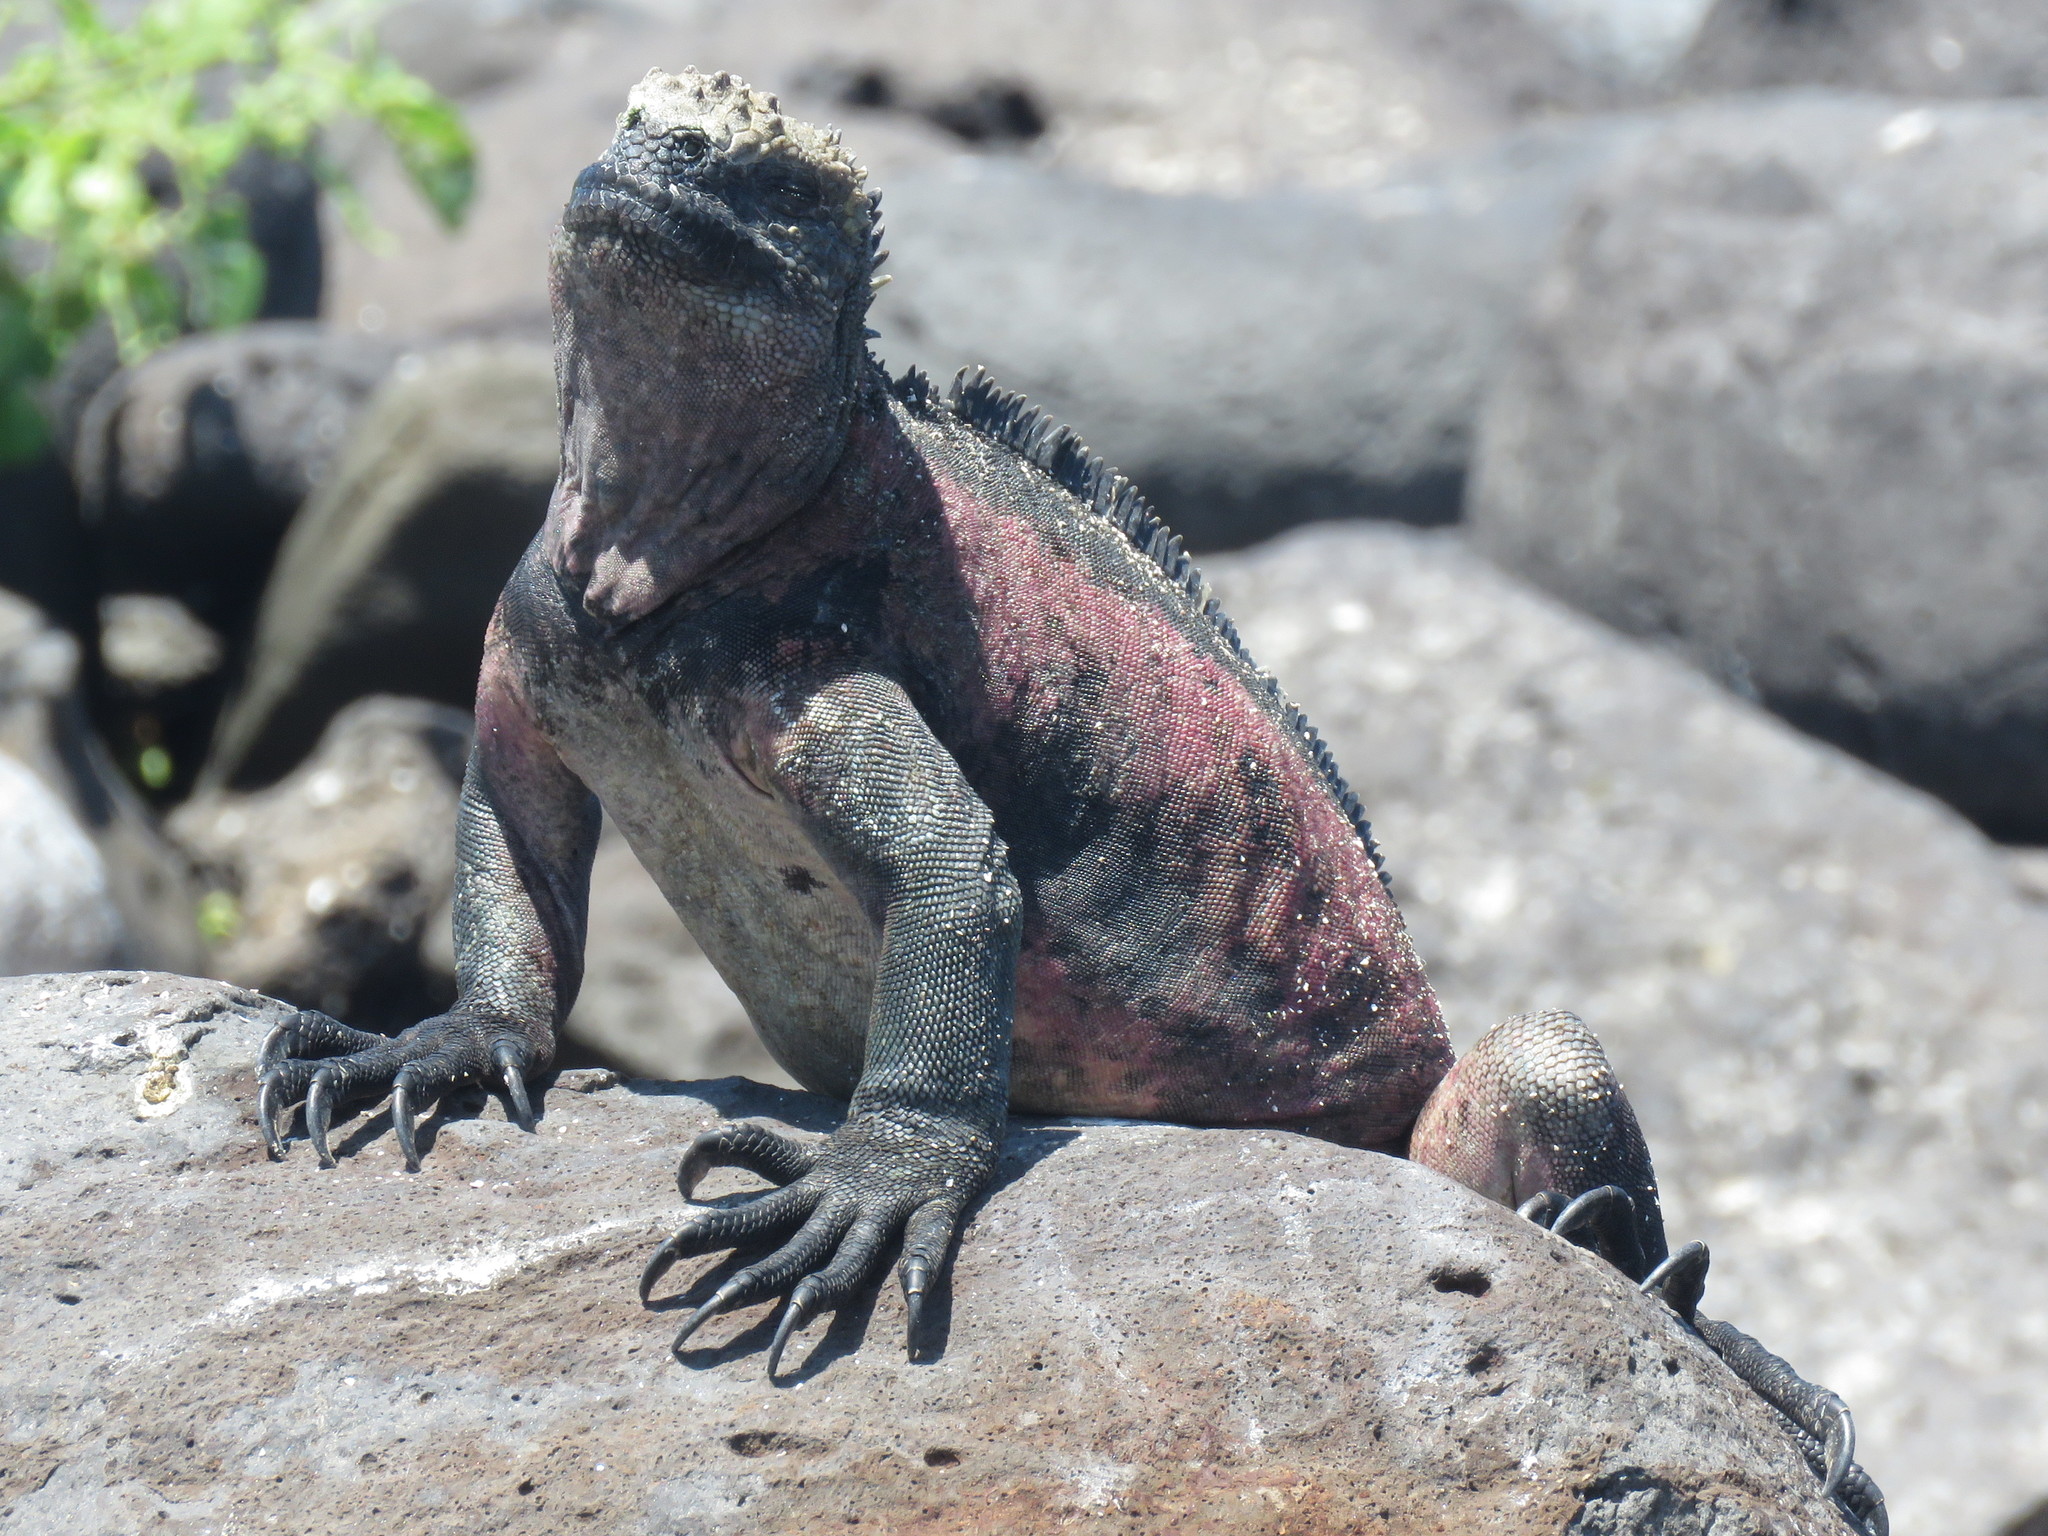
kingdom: Animalia
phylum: Chordata
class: Squamata
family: Iguanidae
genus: Amblyrhynchus
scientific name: Amblyrhynchus cristatus
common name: Marine iguana
